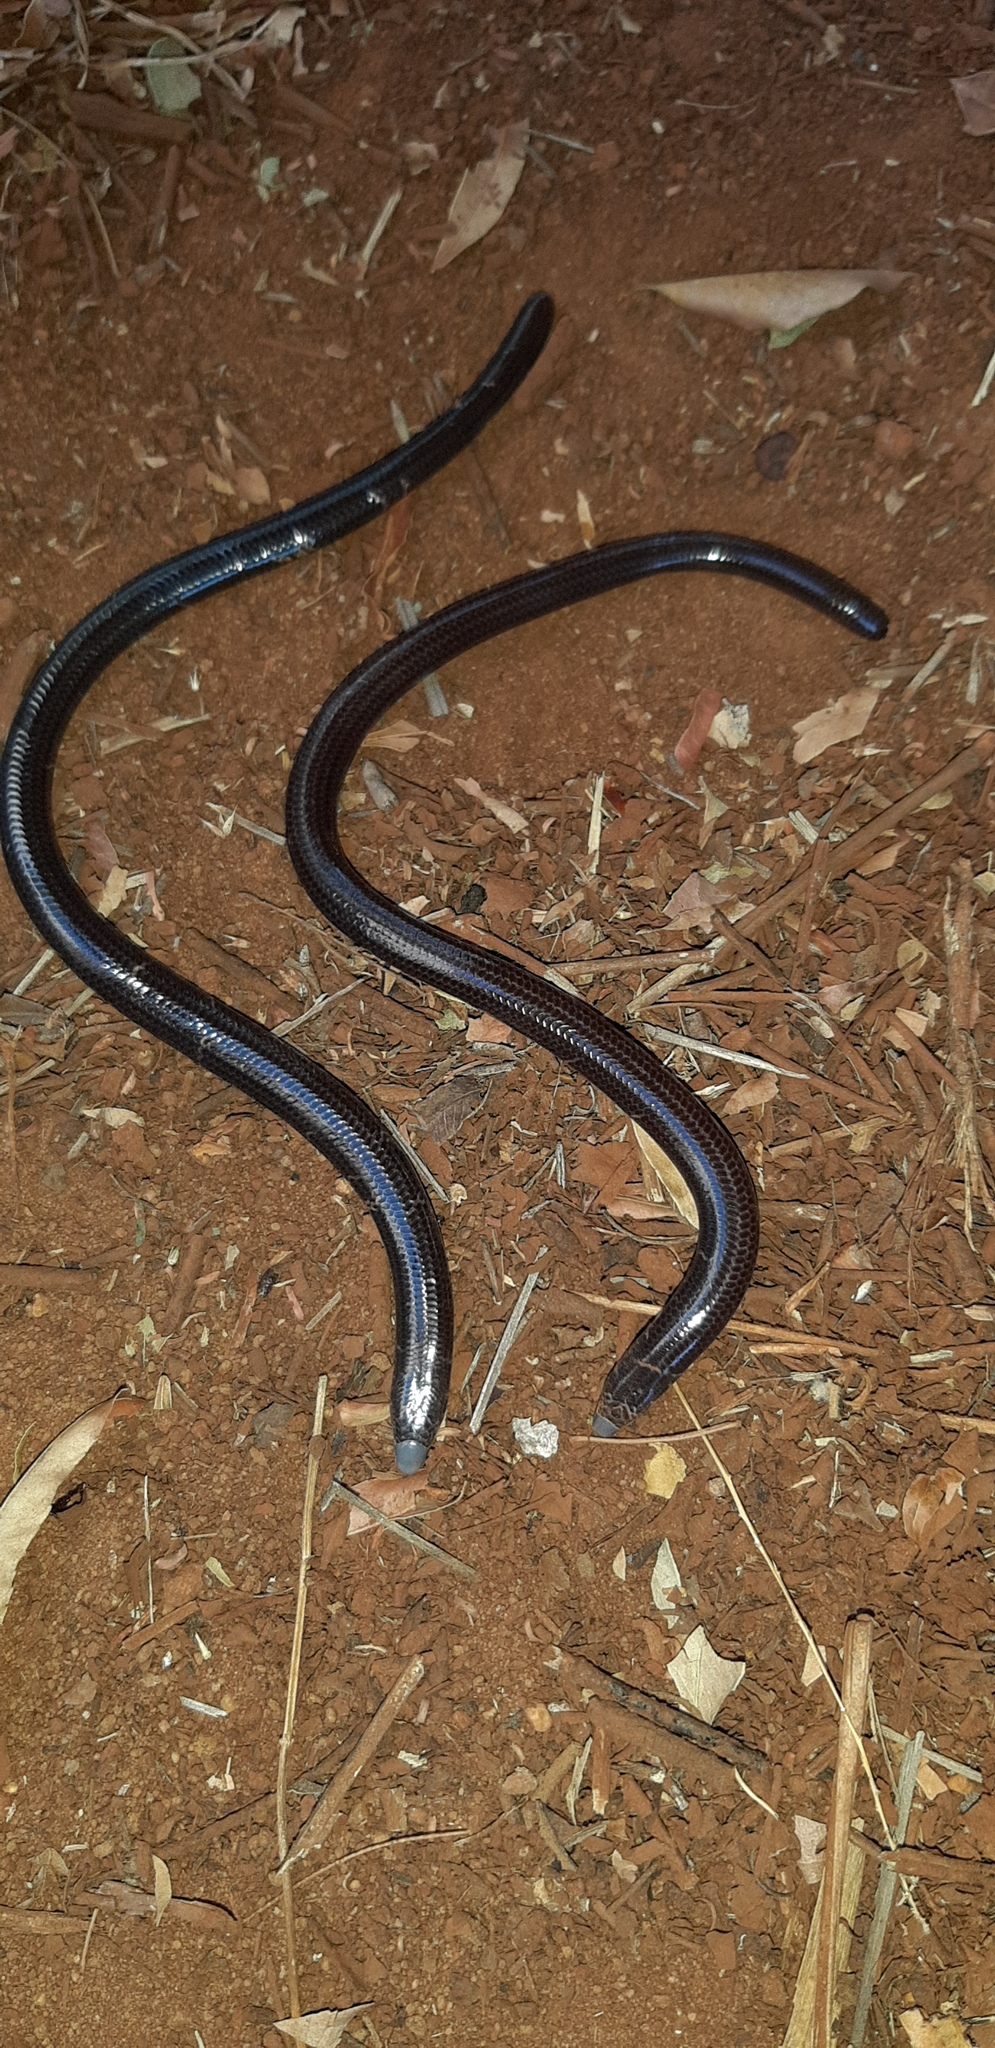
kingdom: Animalia
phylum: Chordata
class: Squamata
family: Scincidae
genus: Acontias
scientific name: Acontias cregoi
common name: Cregoi's blind legless skink
